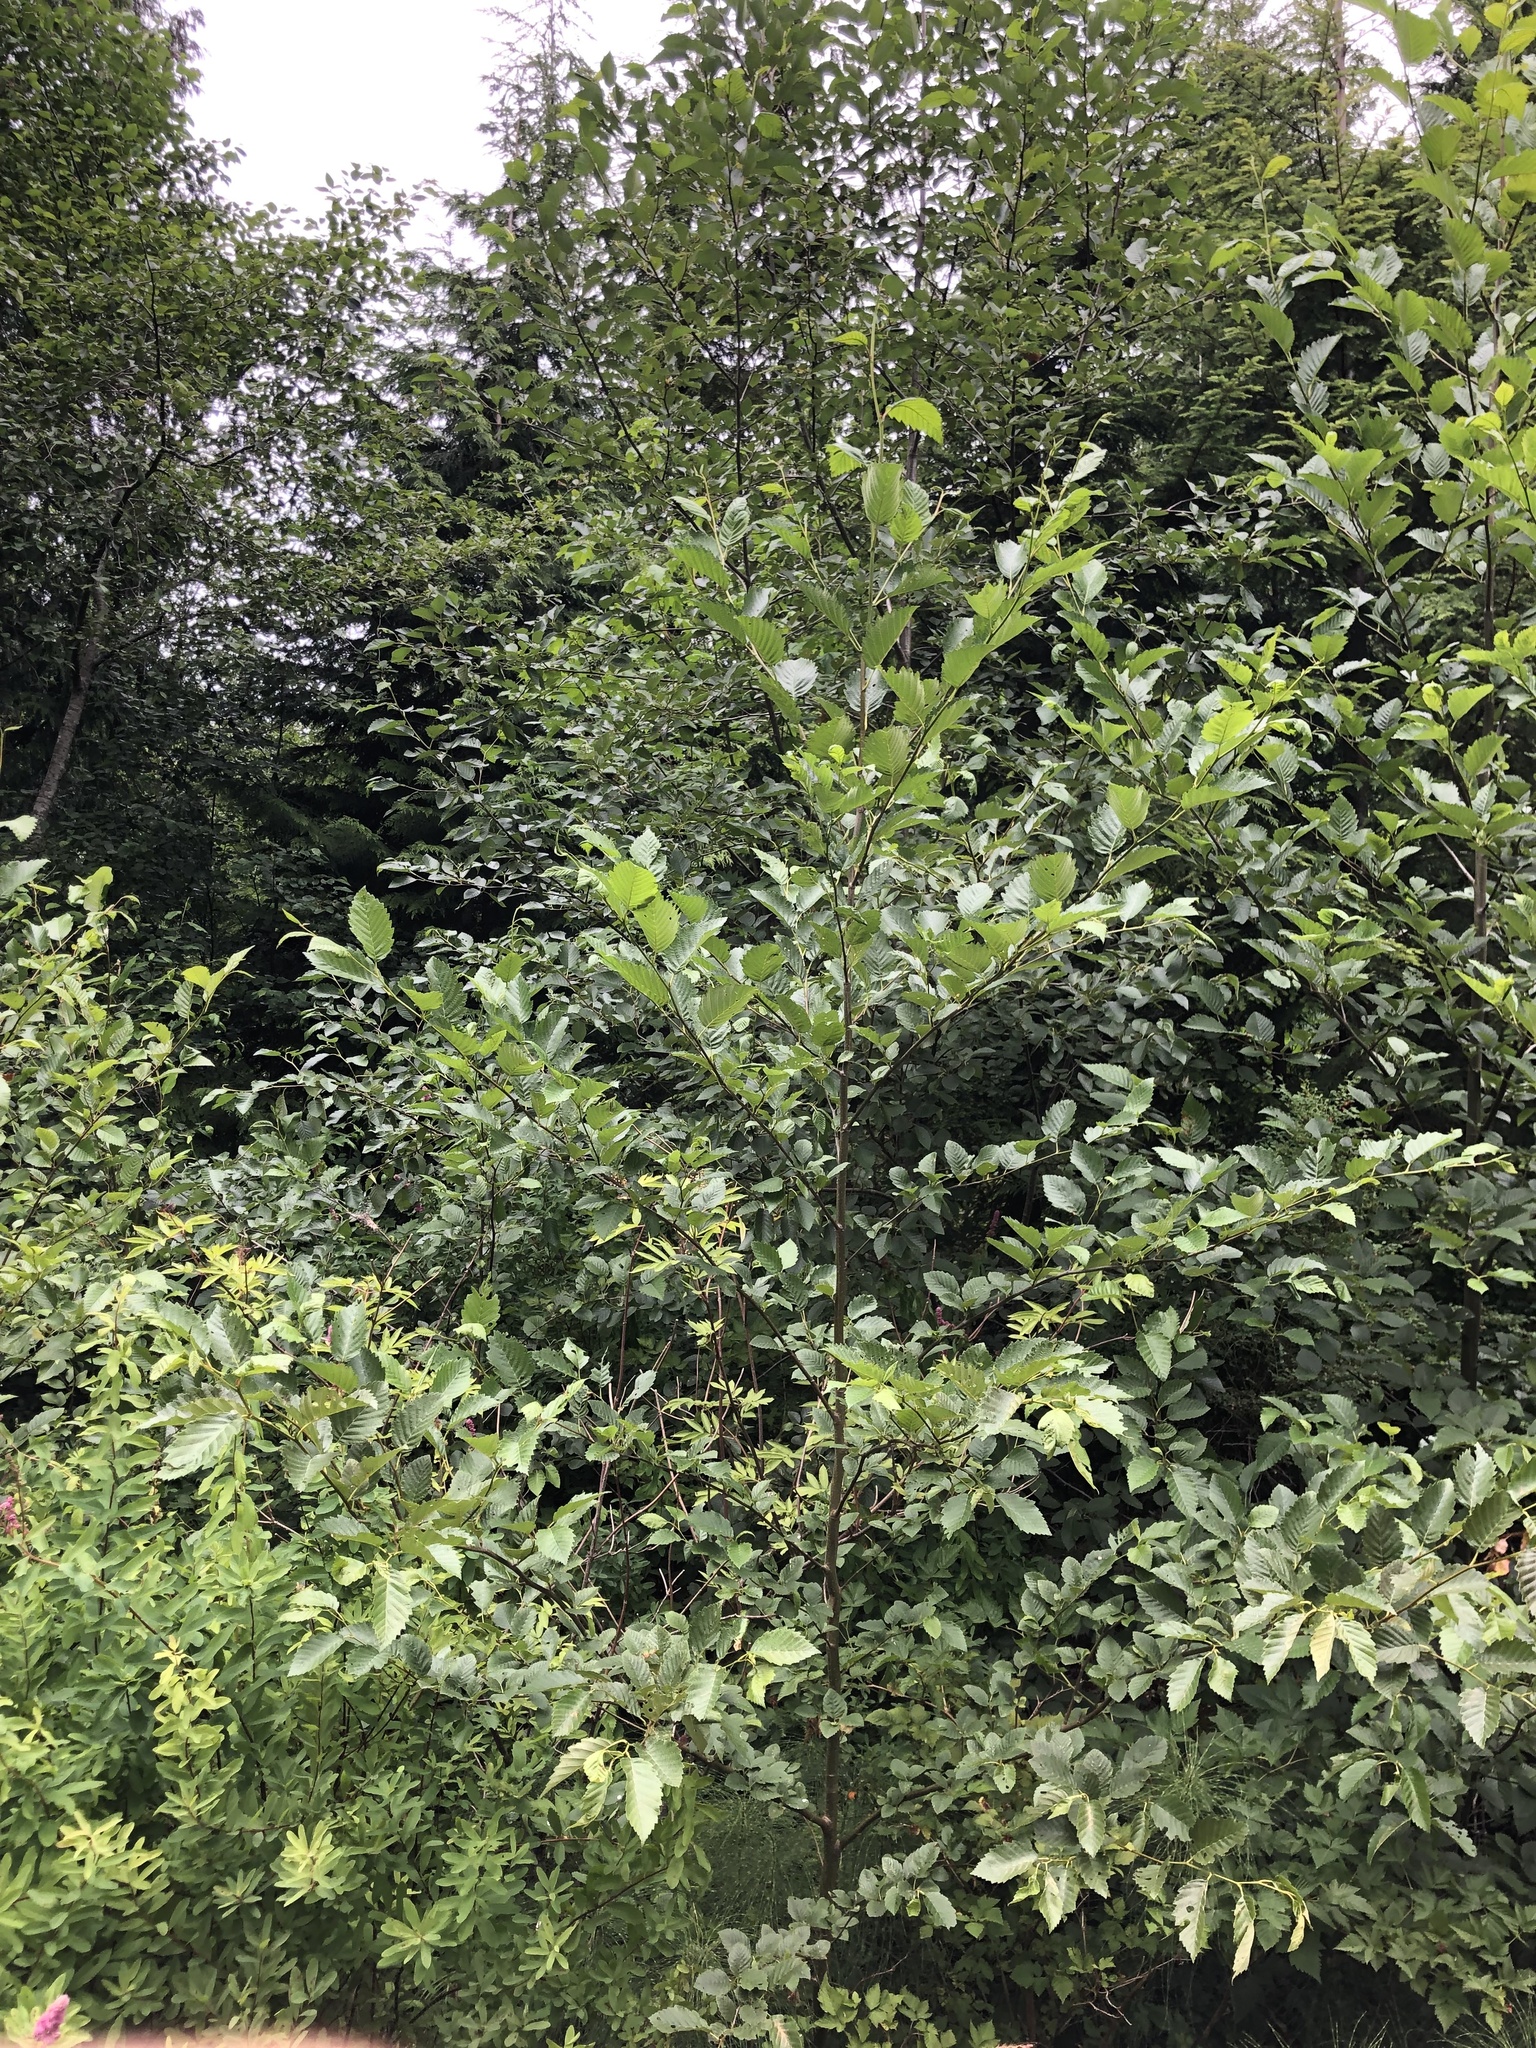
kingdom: Plantae
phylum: Tracheophyta
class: Magnoliopsida
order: Fagales
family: Betulaceae
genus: Alnus
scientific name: Alnus rubra
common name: Red alder
